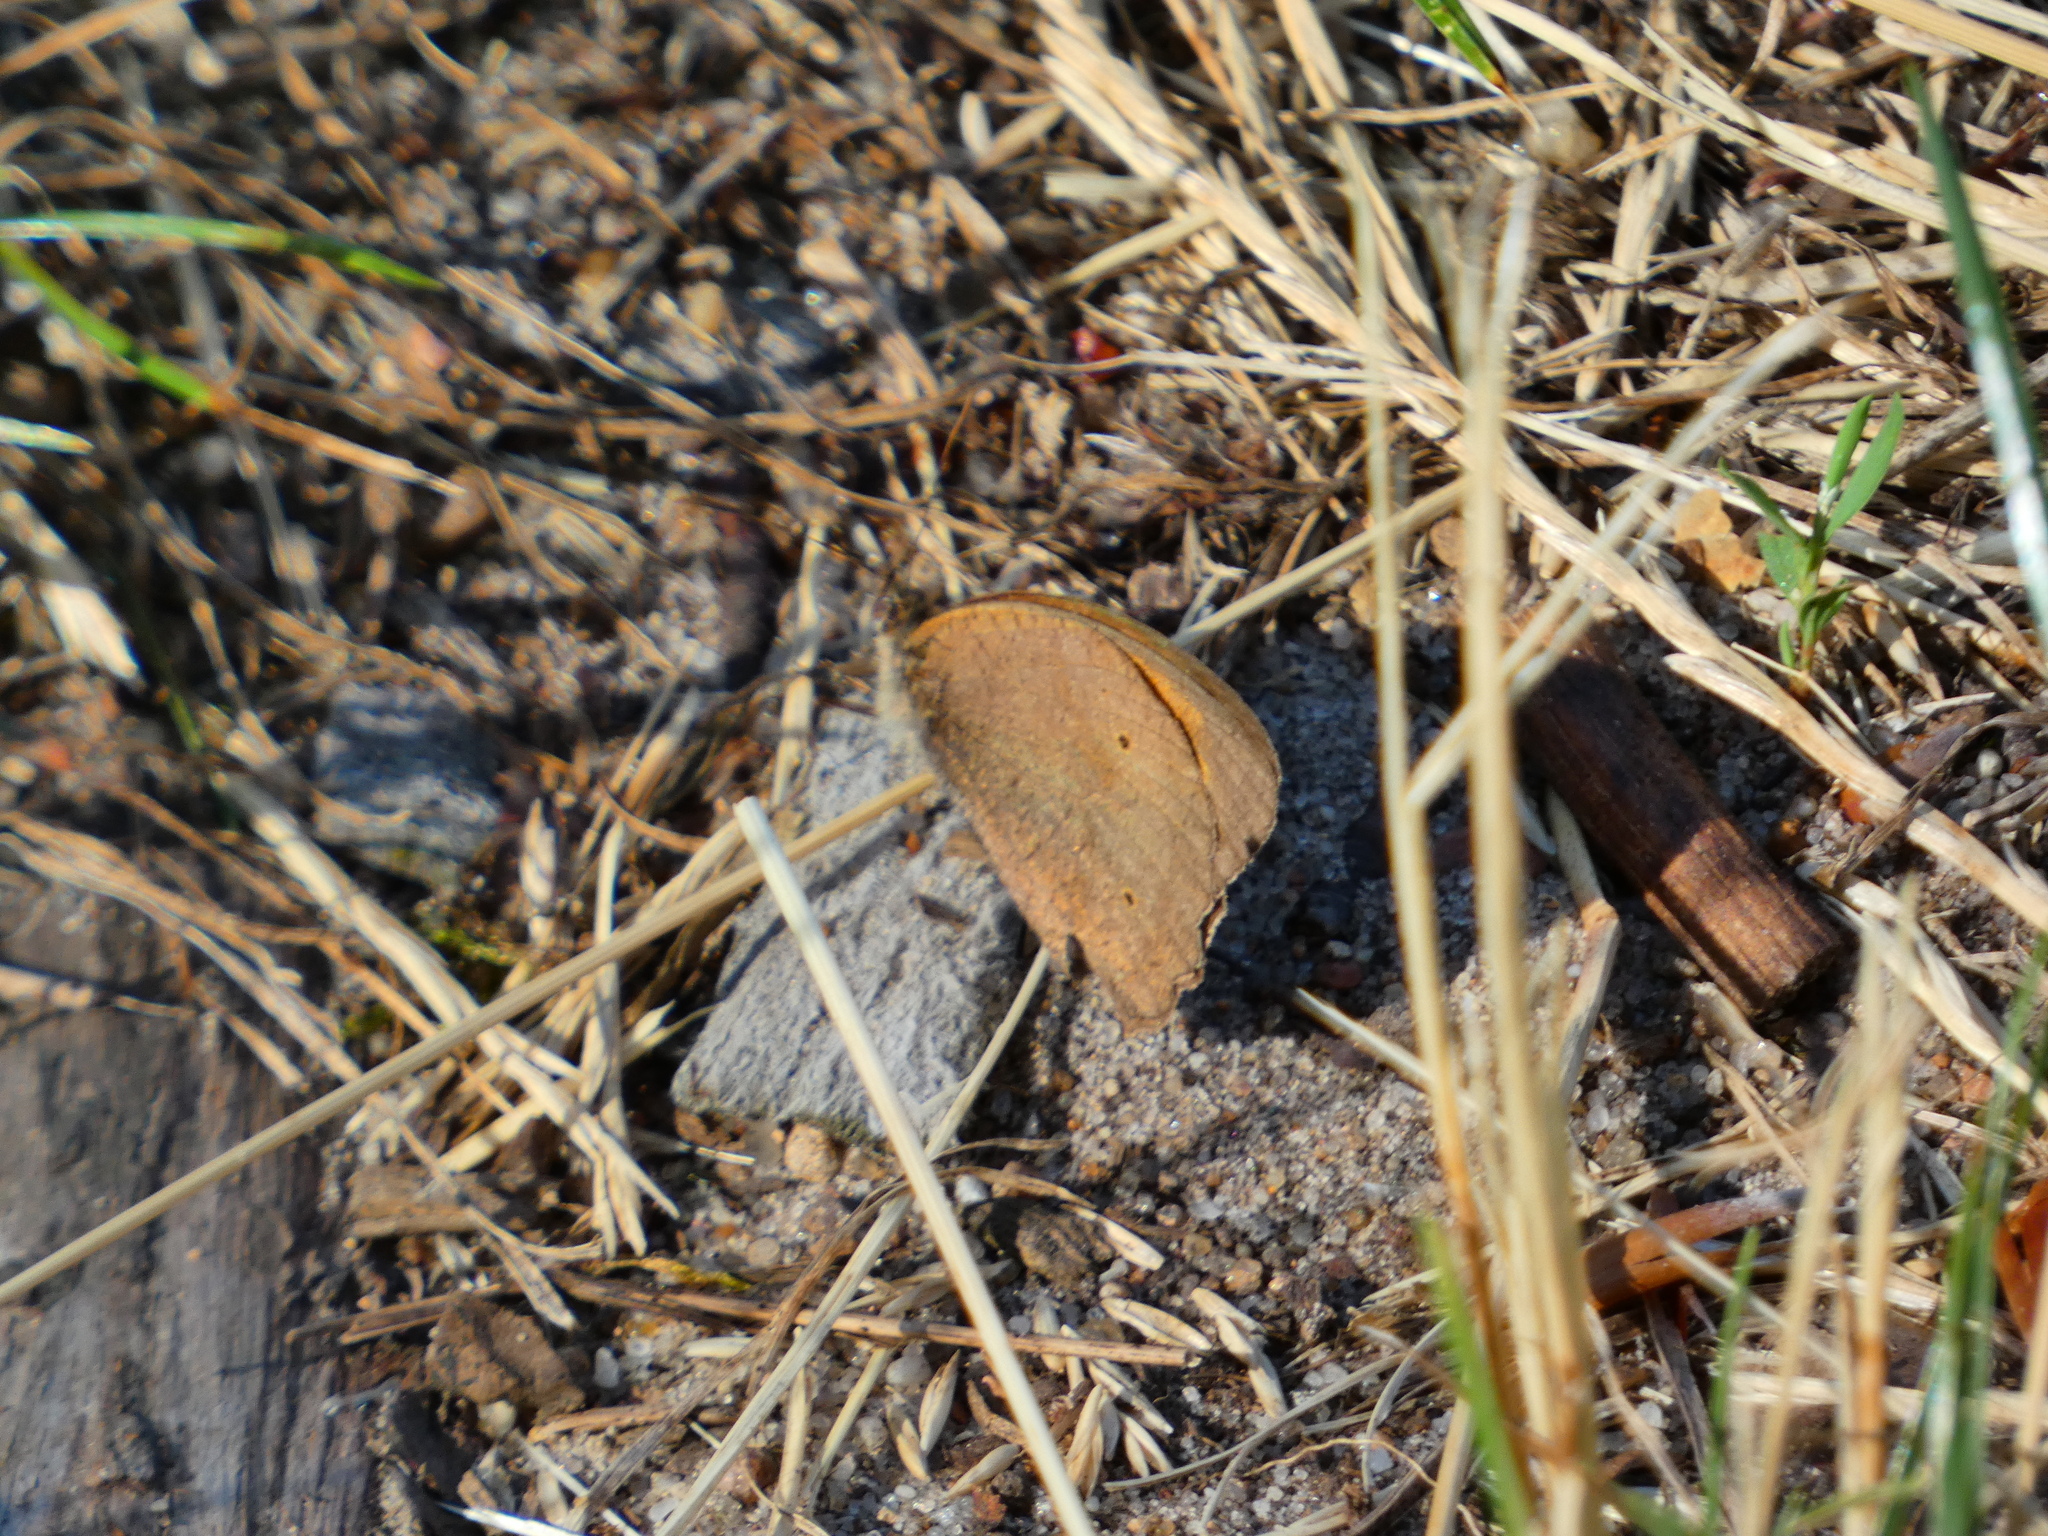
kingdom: Animalia
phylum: Arthropoda
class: Insecta
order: Lepidoptera
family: Nymphalidae
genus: Maniola
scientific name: Maniola jurtina
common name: Meadow brown
